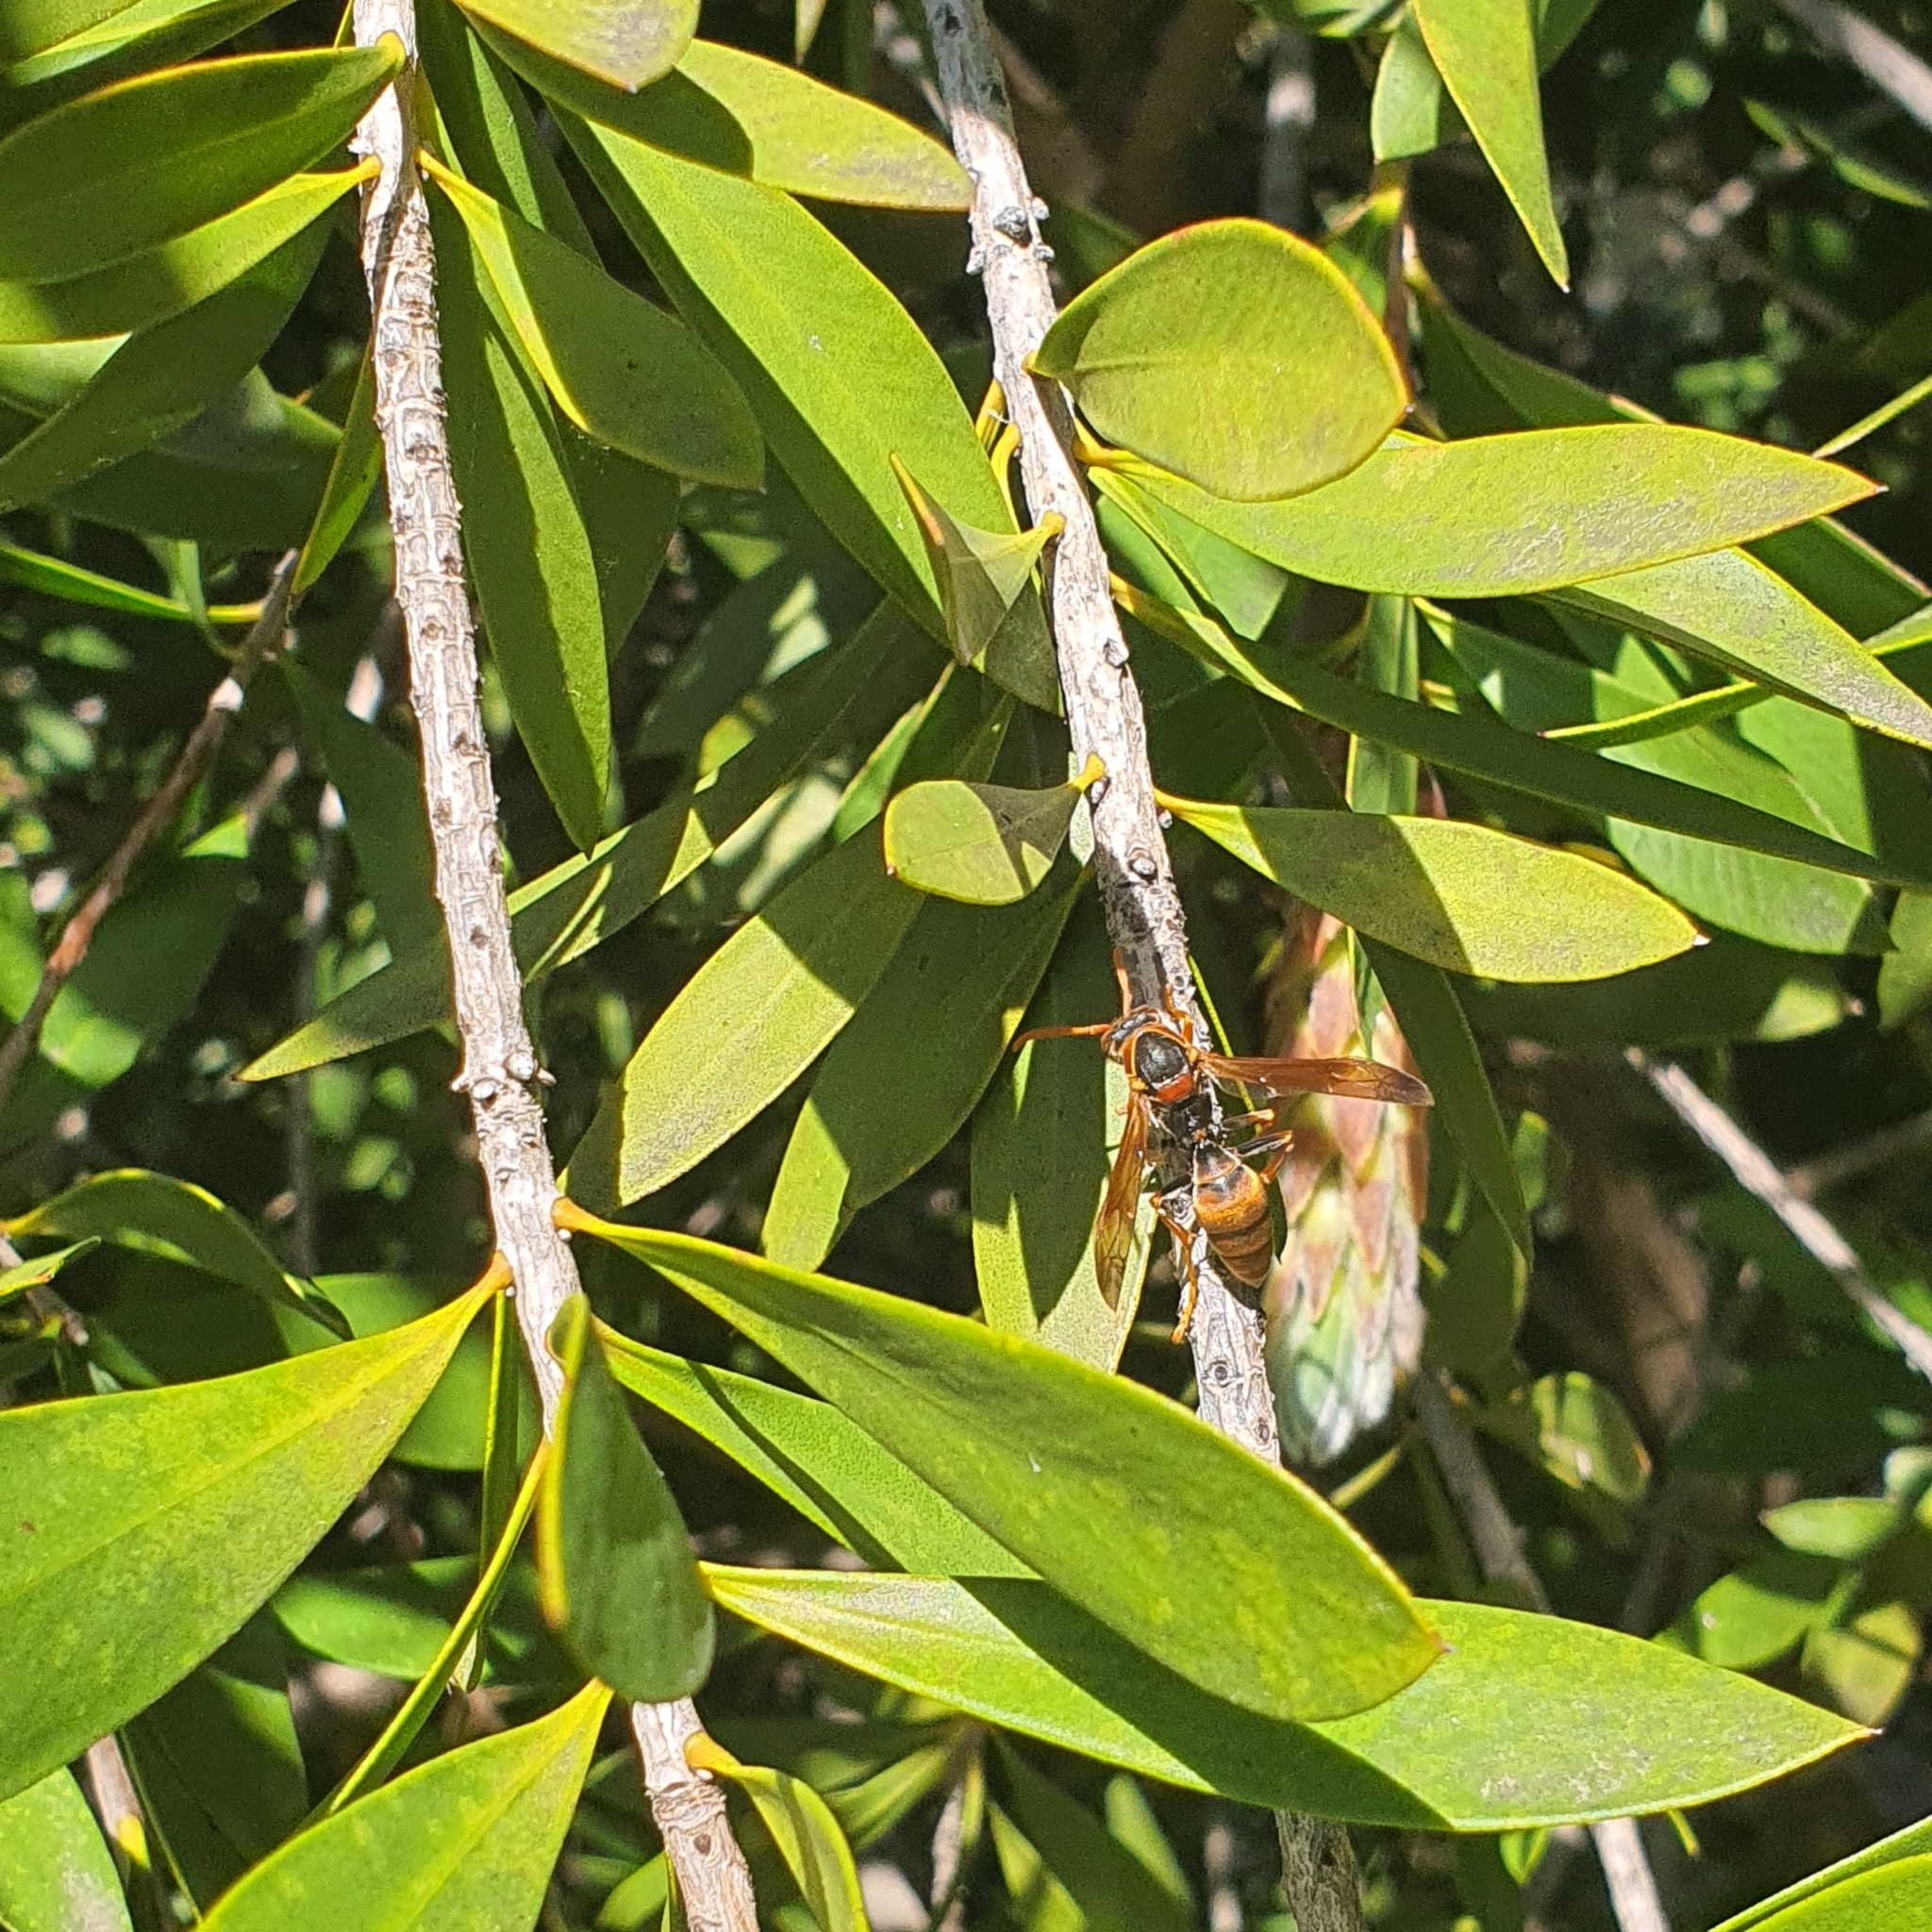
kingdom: Animalia
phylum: Arthropoda
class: Insecta
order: Hymenoptera
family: Eumenidae
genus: Polistes
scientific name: Polistes humilis
